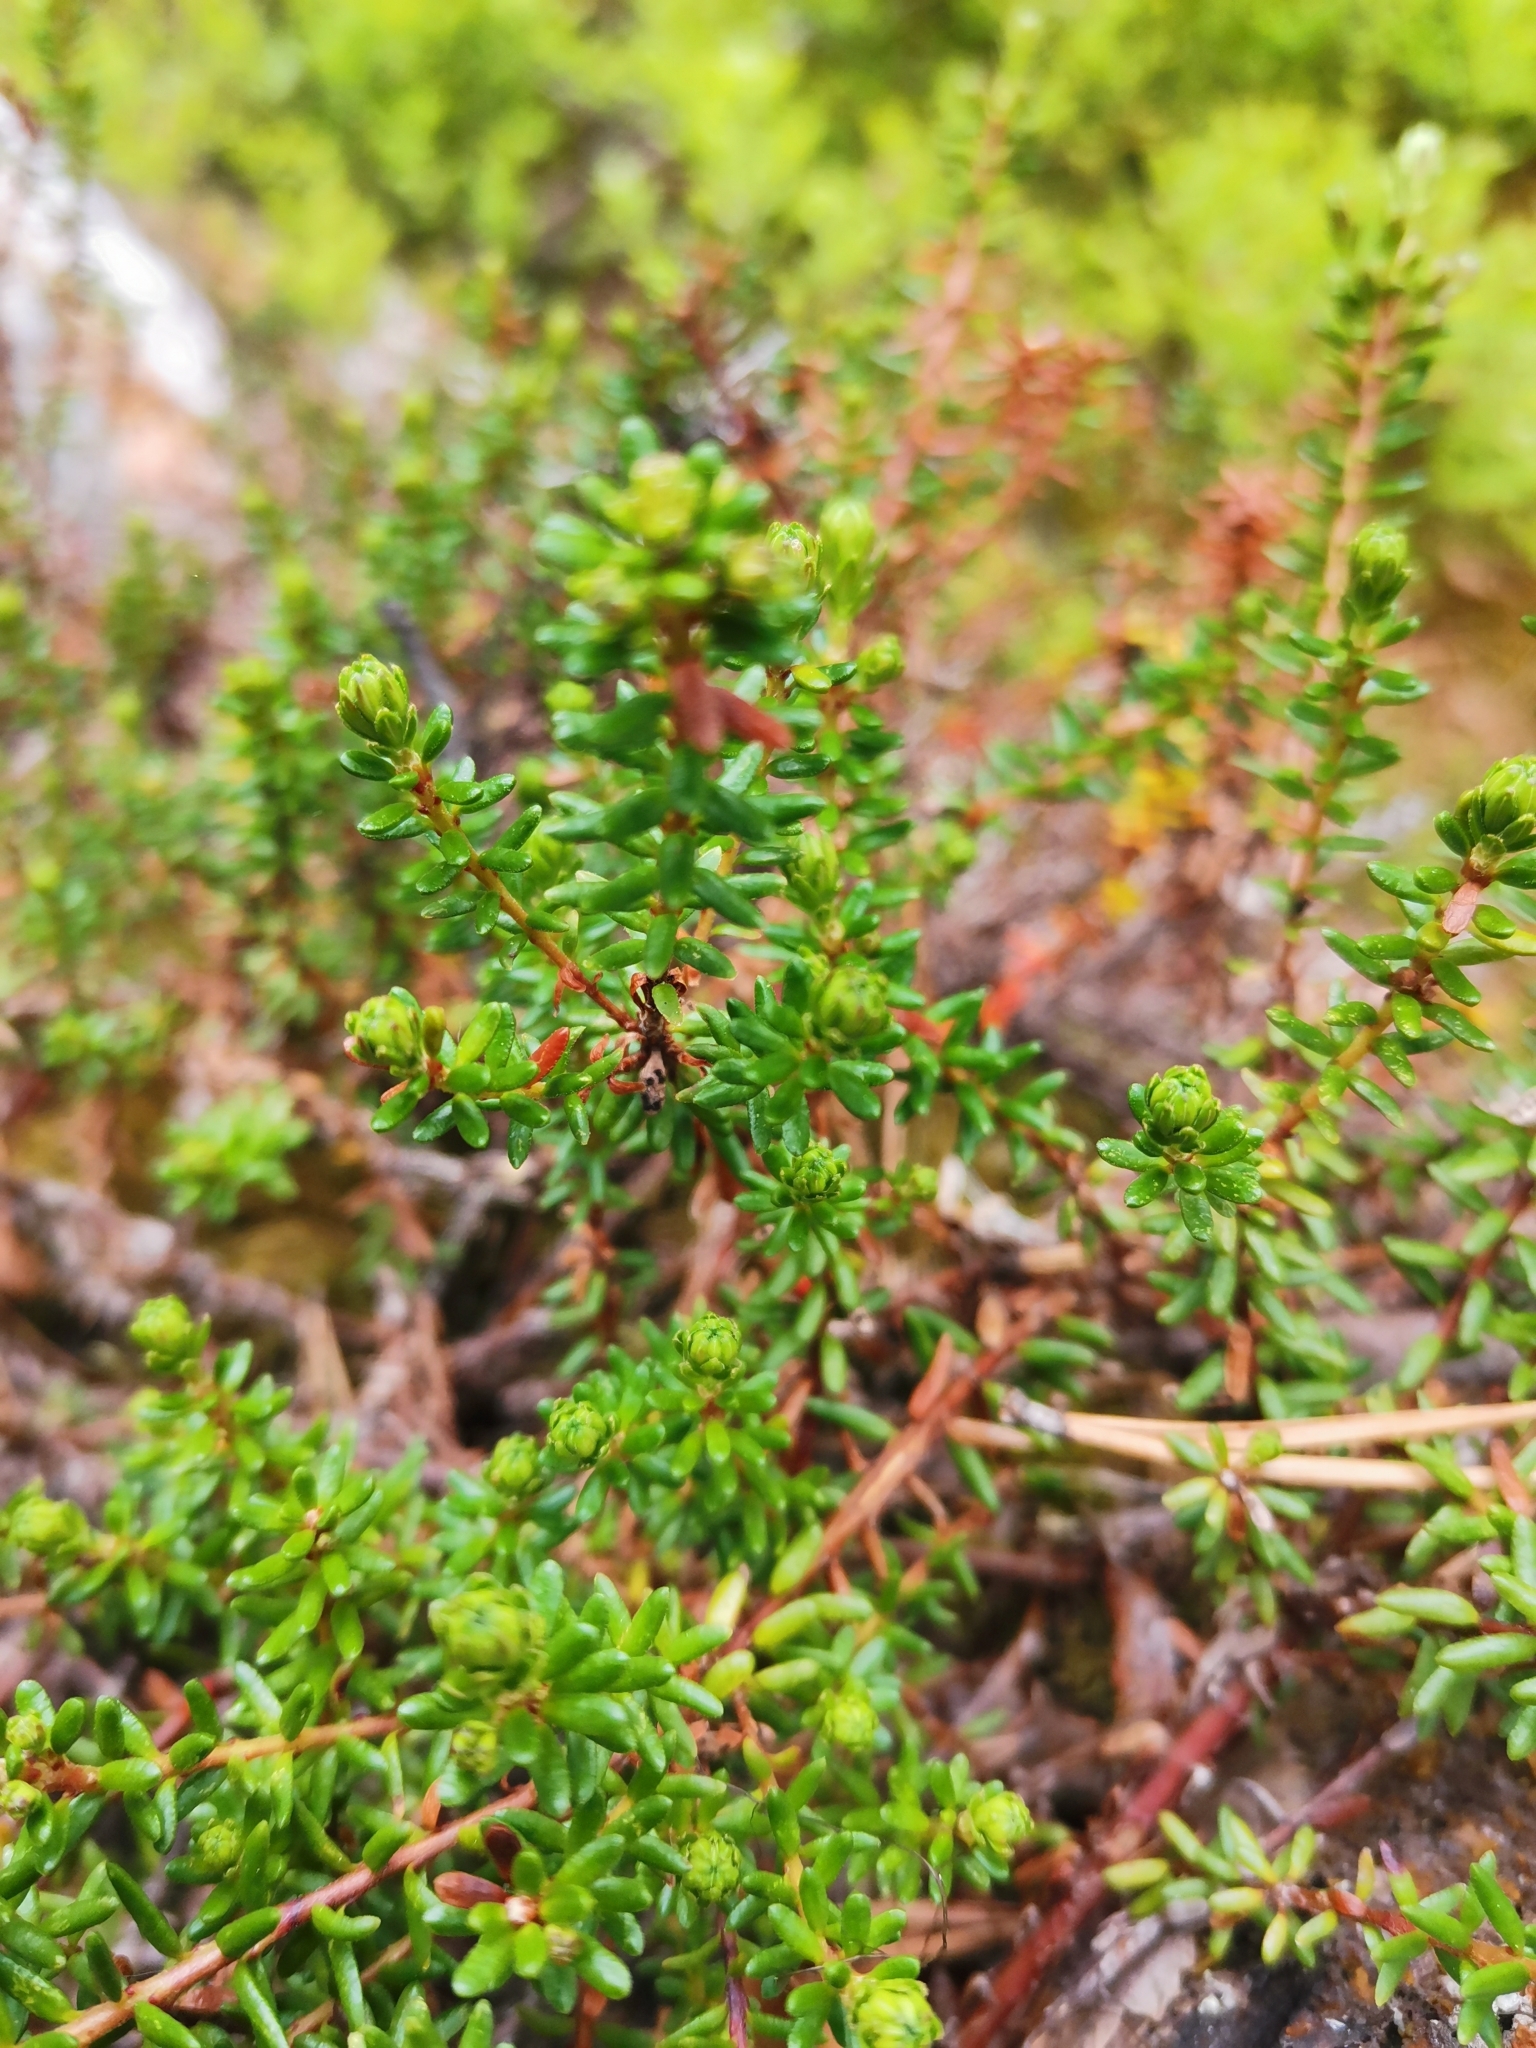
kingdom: Plantae
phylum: Tracheophyta
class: Magnoliopsida
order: Ericales
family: Ericaceae
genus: Empetrum
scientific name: Empetrum hermaphroditum
